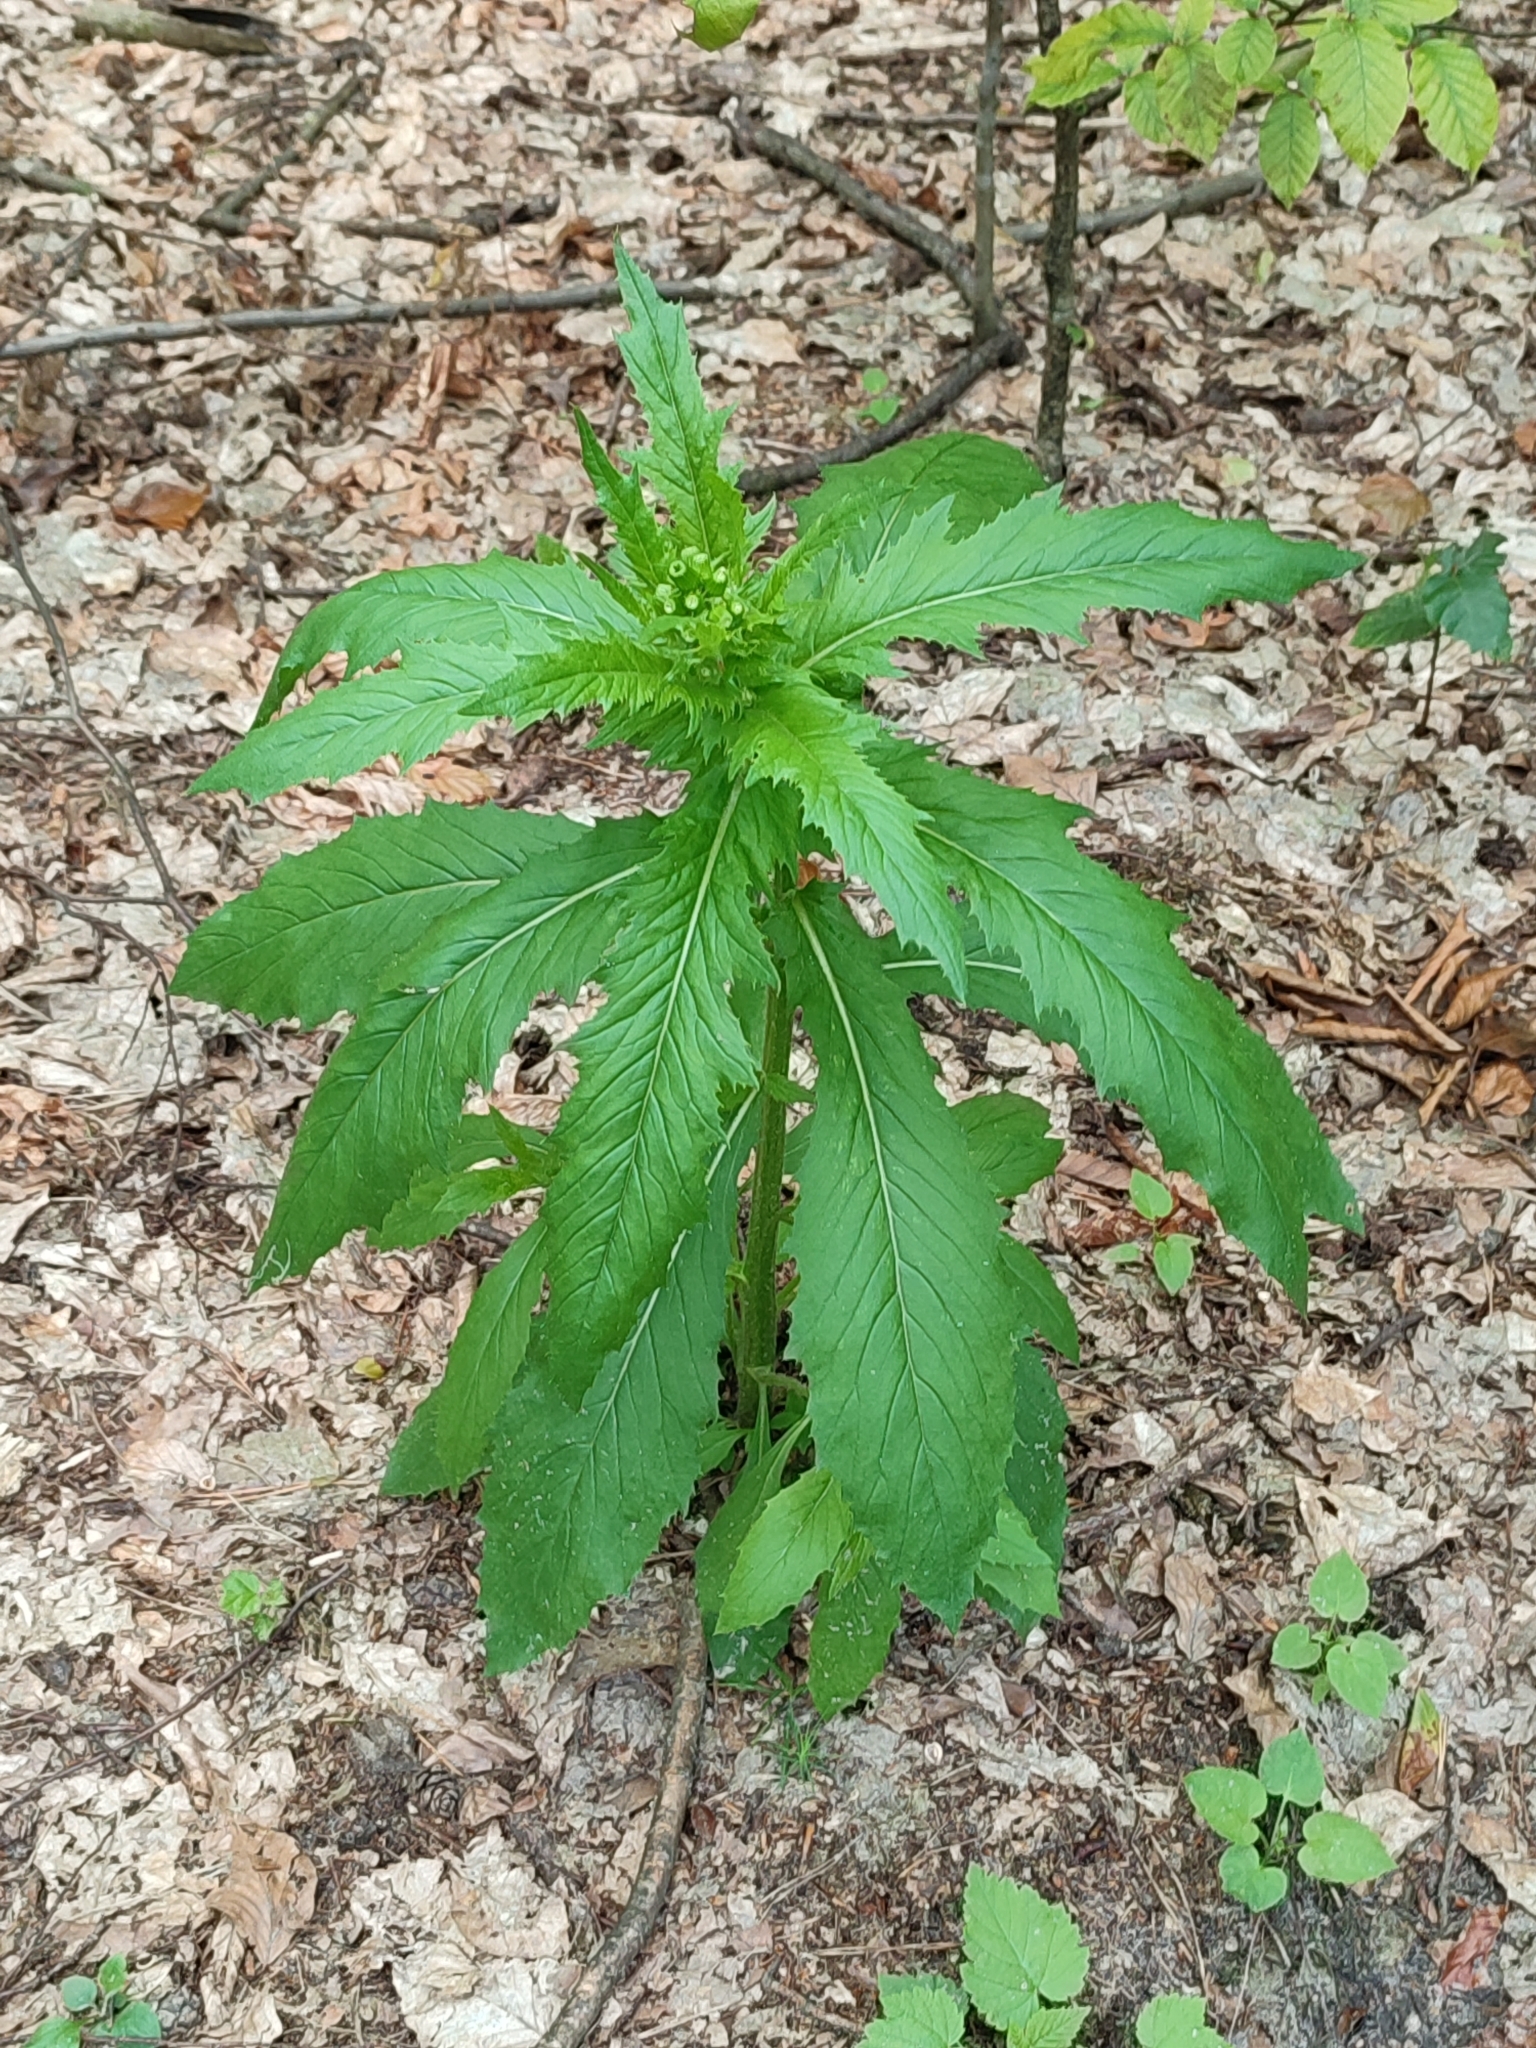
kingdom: Plantae
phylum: Tracheophyta
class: Magnoliopsida
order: Asterales
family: Asteraceae
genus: Erechtites
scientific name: Erechtites hieraciifolius
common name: American burnweed
